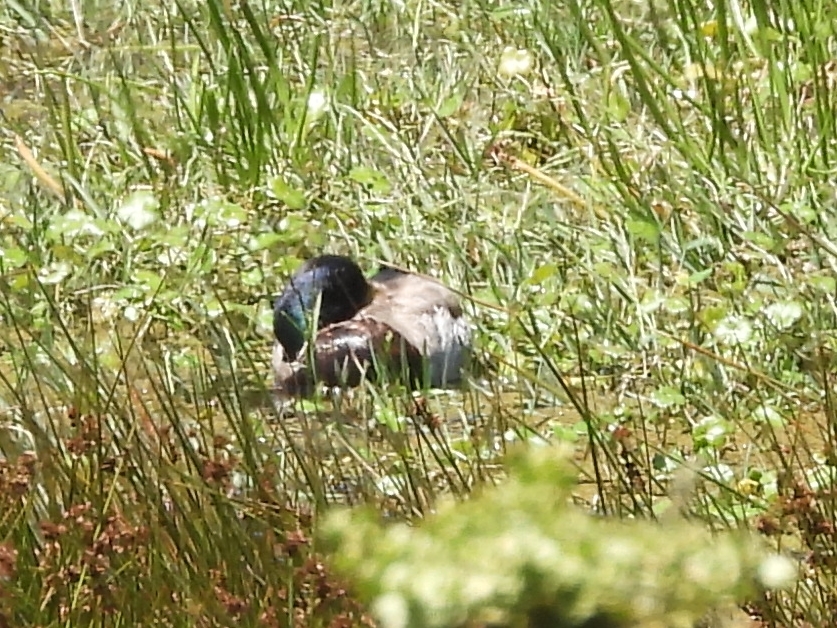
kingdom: Animalia
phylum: Chordata
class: Aves
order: Anseriformes
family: Anatidae
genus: Anas
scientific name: Anas platyrhynchos
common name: Mallard
